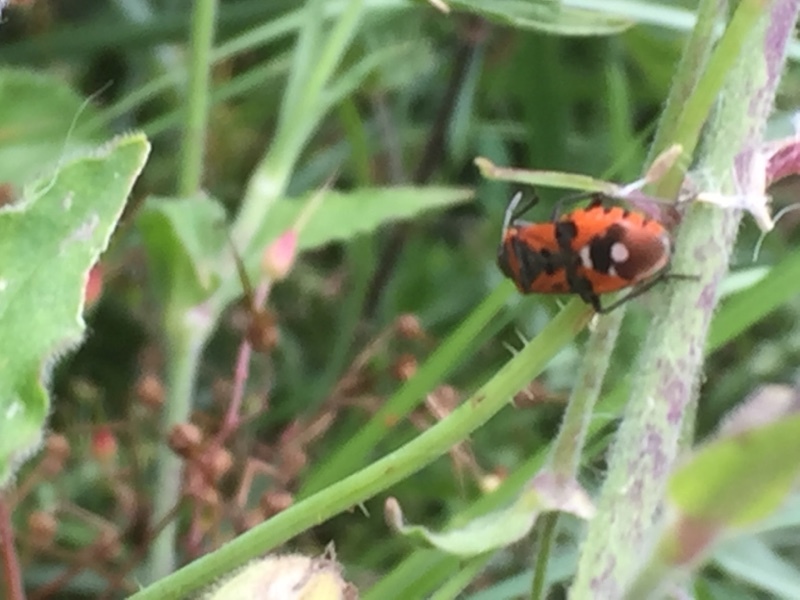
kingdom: Animalia
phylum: Arthropoda
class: Insecta
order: Hemiptera
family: Lygaeidae
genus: Lygaeus
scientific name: Lygaeus equestris
